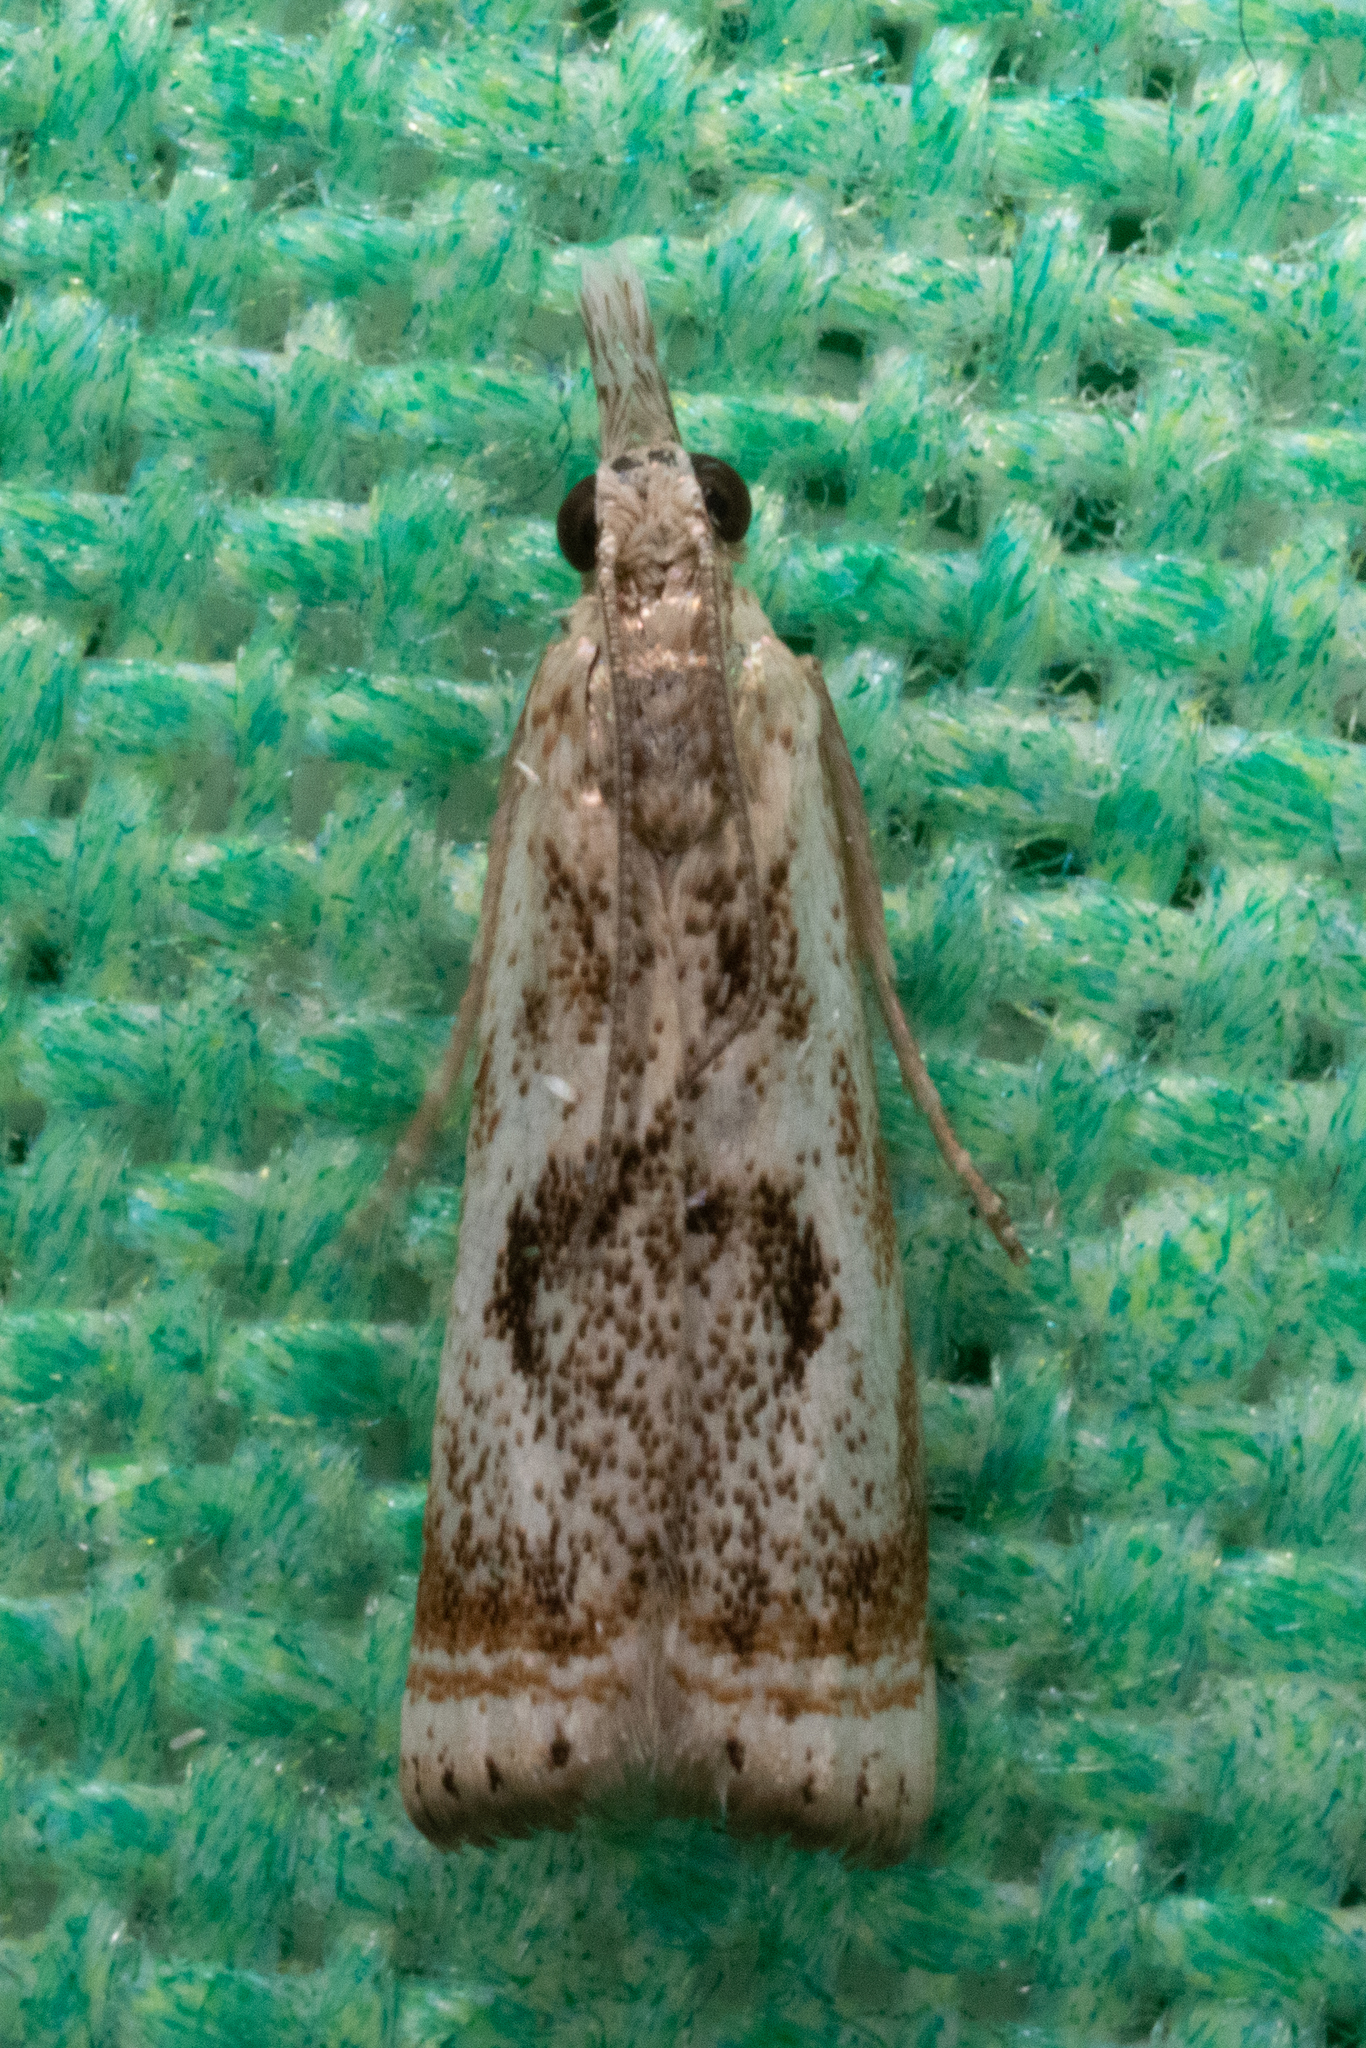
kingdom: Animalia
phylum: Arthropoda
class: Insecta
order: Lepidoptera
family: Crambidae
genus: Microcrambus
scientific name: Microcrambus elegans
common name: Elegant grass-veneer
